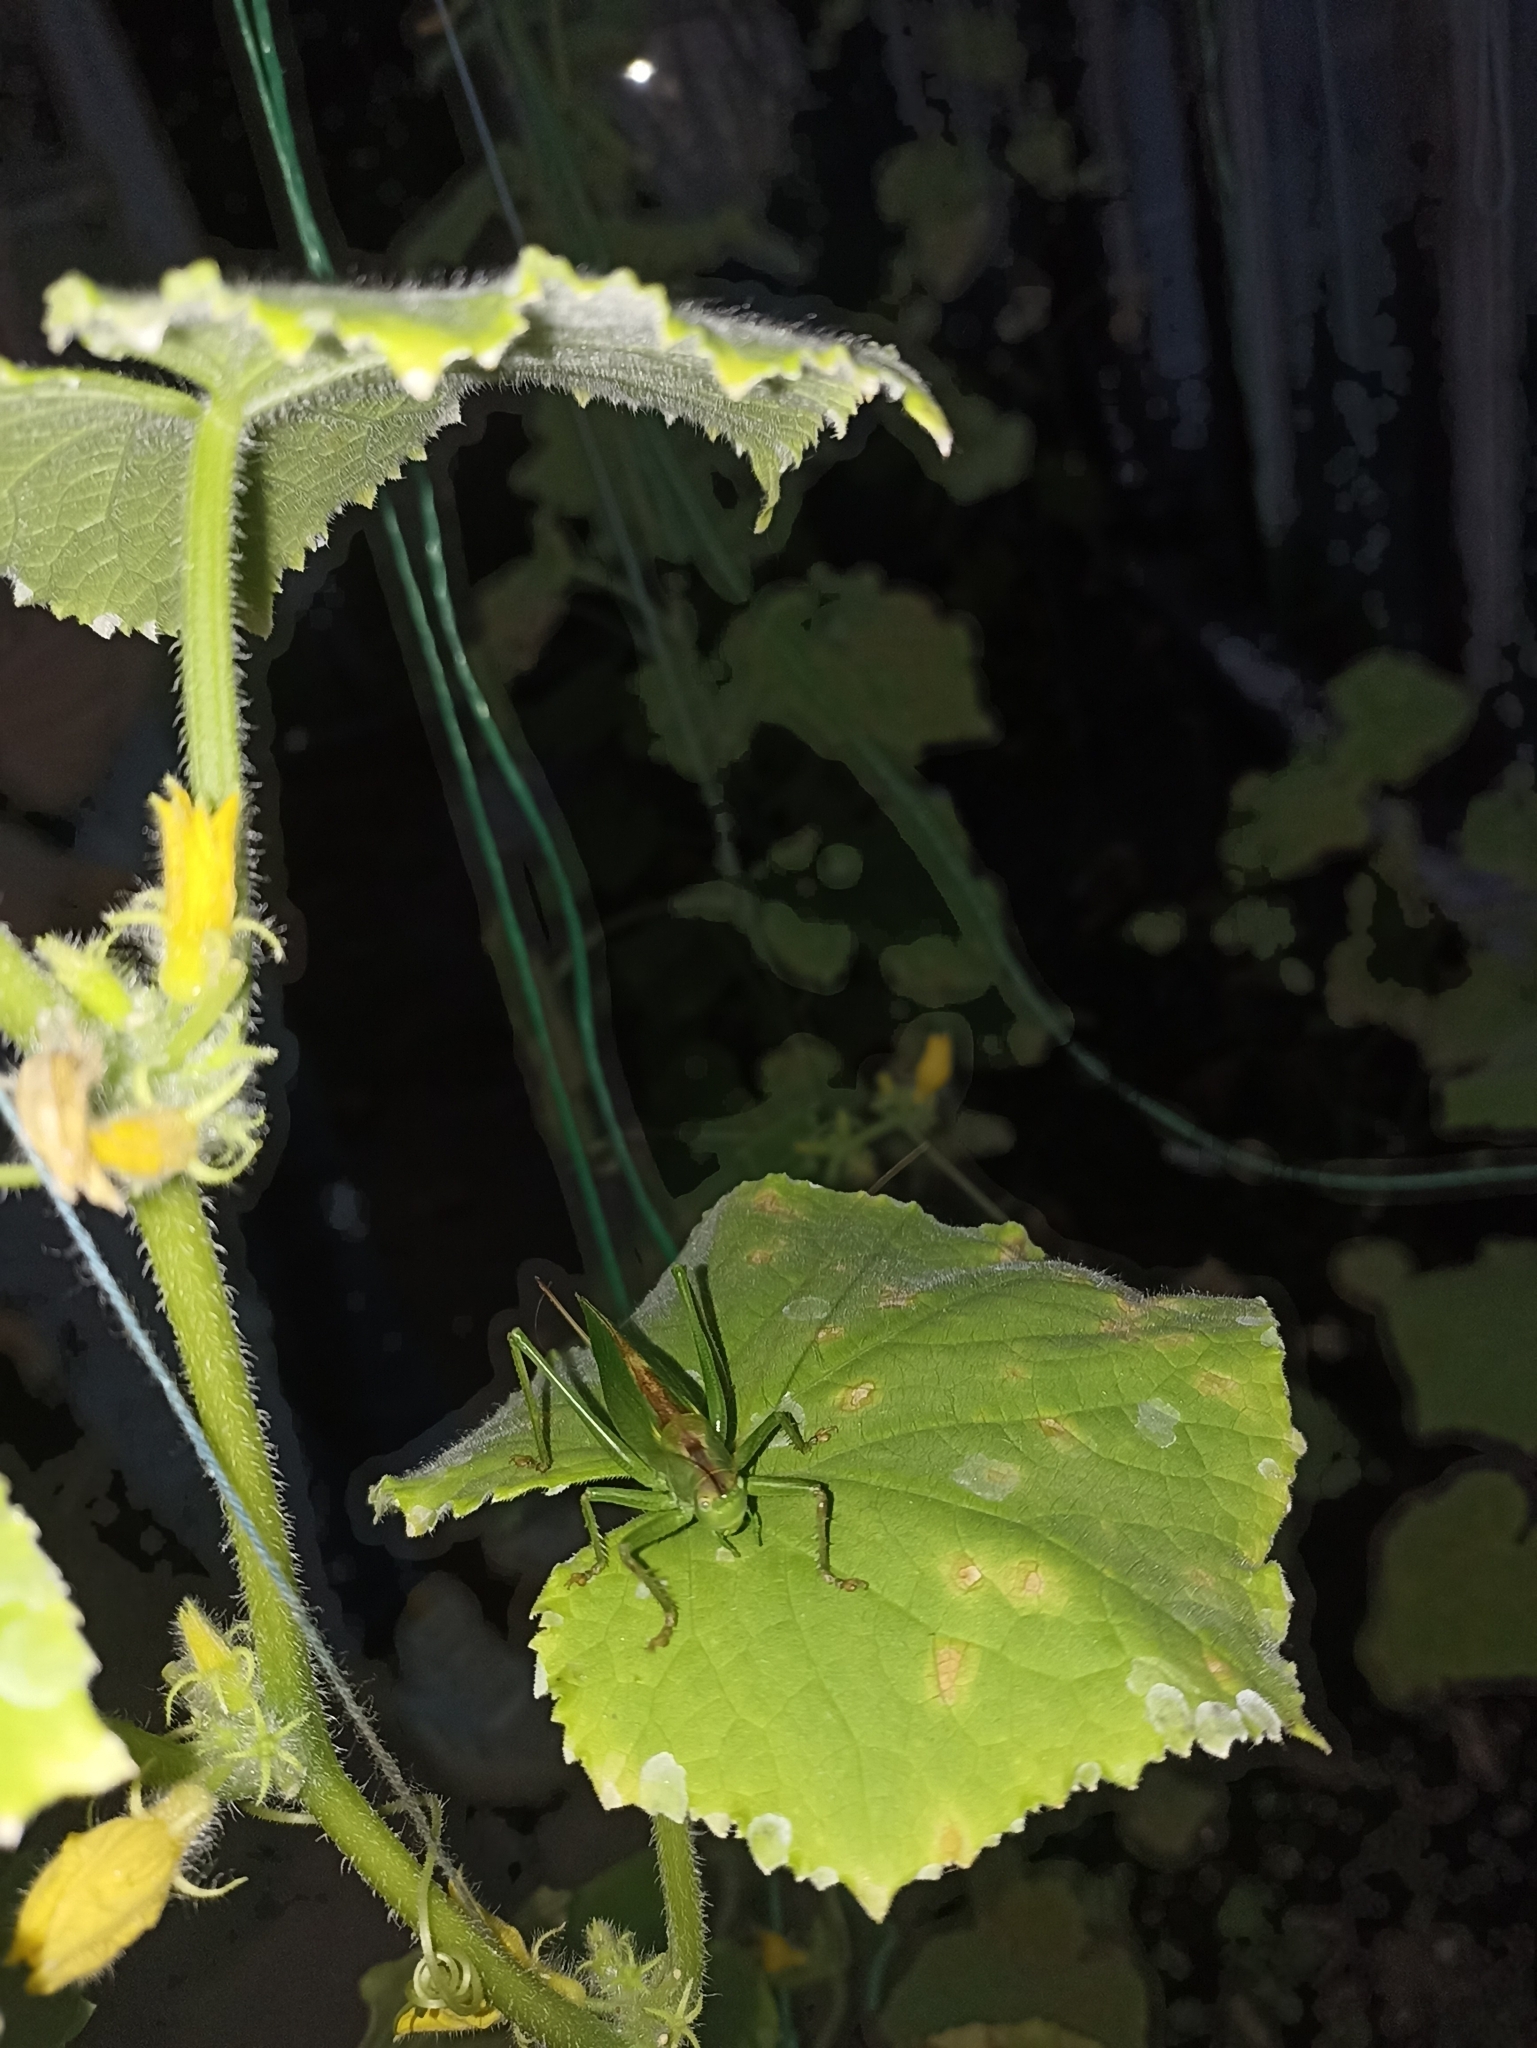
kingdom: Animalia
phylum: Arthropoda
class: Insecta
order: Orthoptera
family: Tettigoniidae
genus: Tettigonia
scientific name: Tettigonia cantans
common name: Upland green bush-cricket
